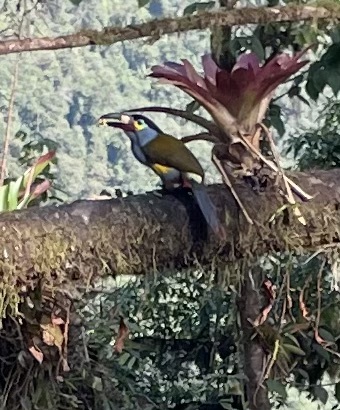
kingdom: Animalia
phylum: Chordata
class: Aves
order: Piciformes
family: Ramphastidae
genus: Andigena
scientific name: Andigena laminirostris
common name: Plate-billed mountain toucan
